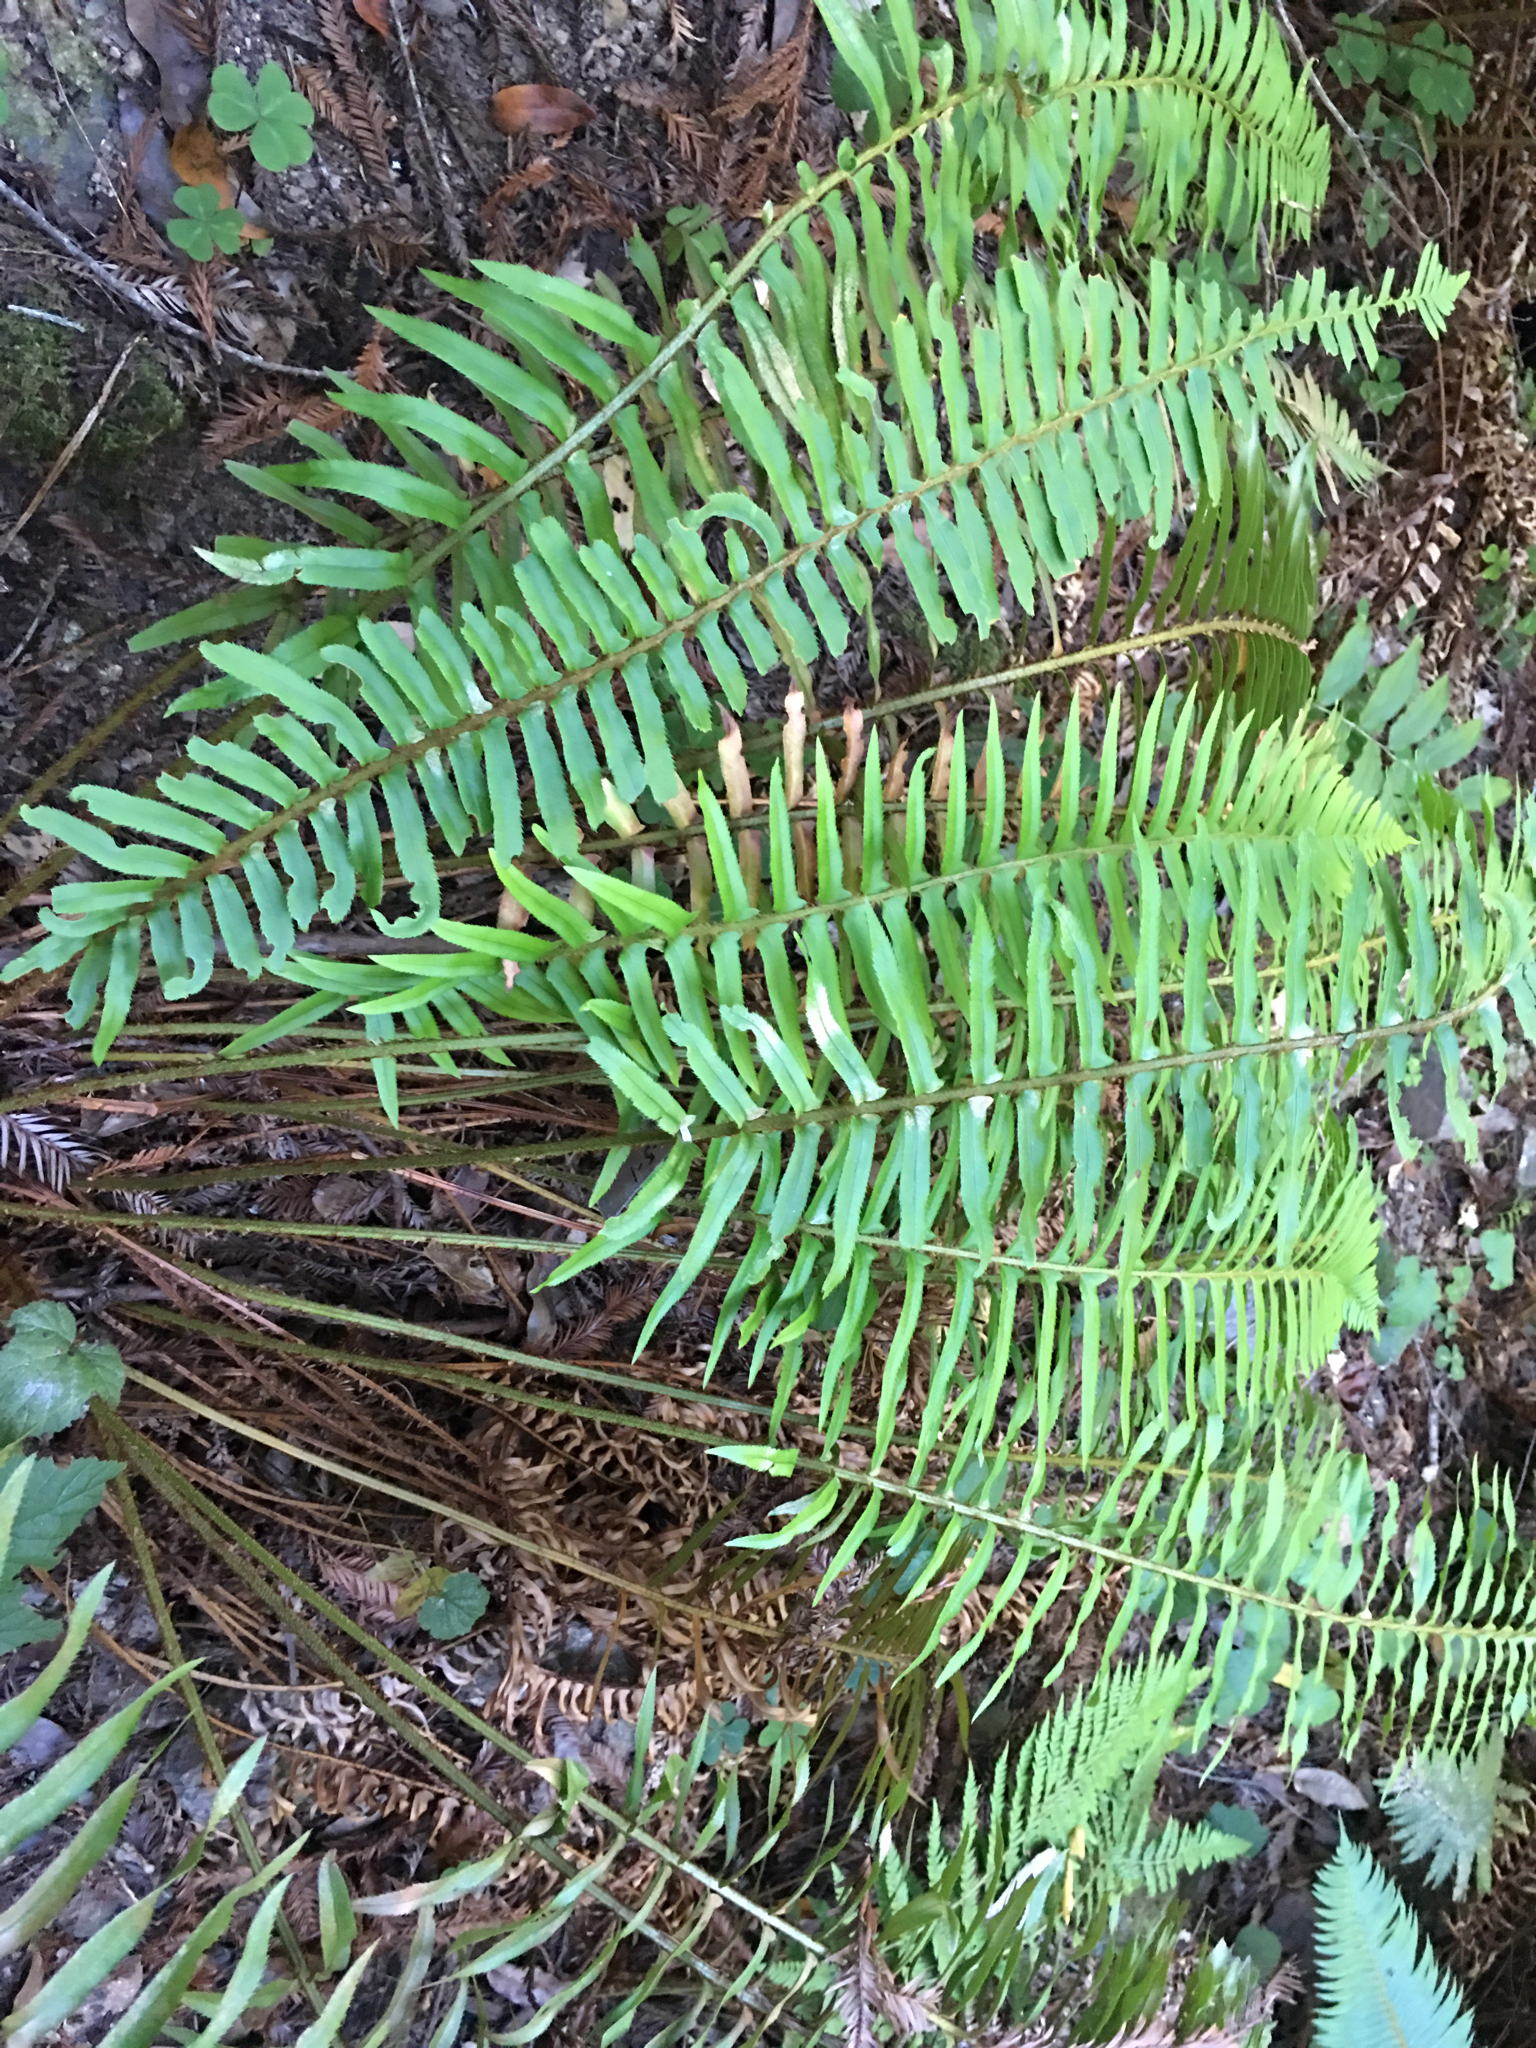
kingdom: Plantae
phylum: Tracheophyta
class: Polypodiopsida
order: Polypodiales
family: Dryopteridaceae
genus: Polystichum
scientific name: Polystichum munitum
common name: Western sword-fern
